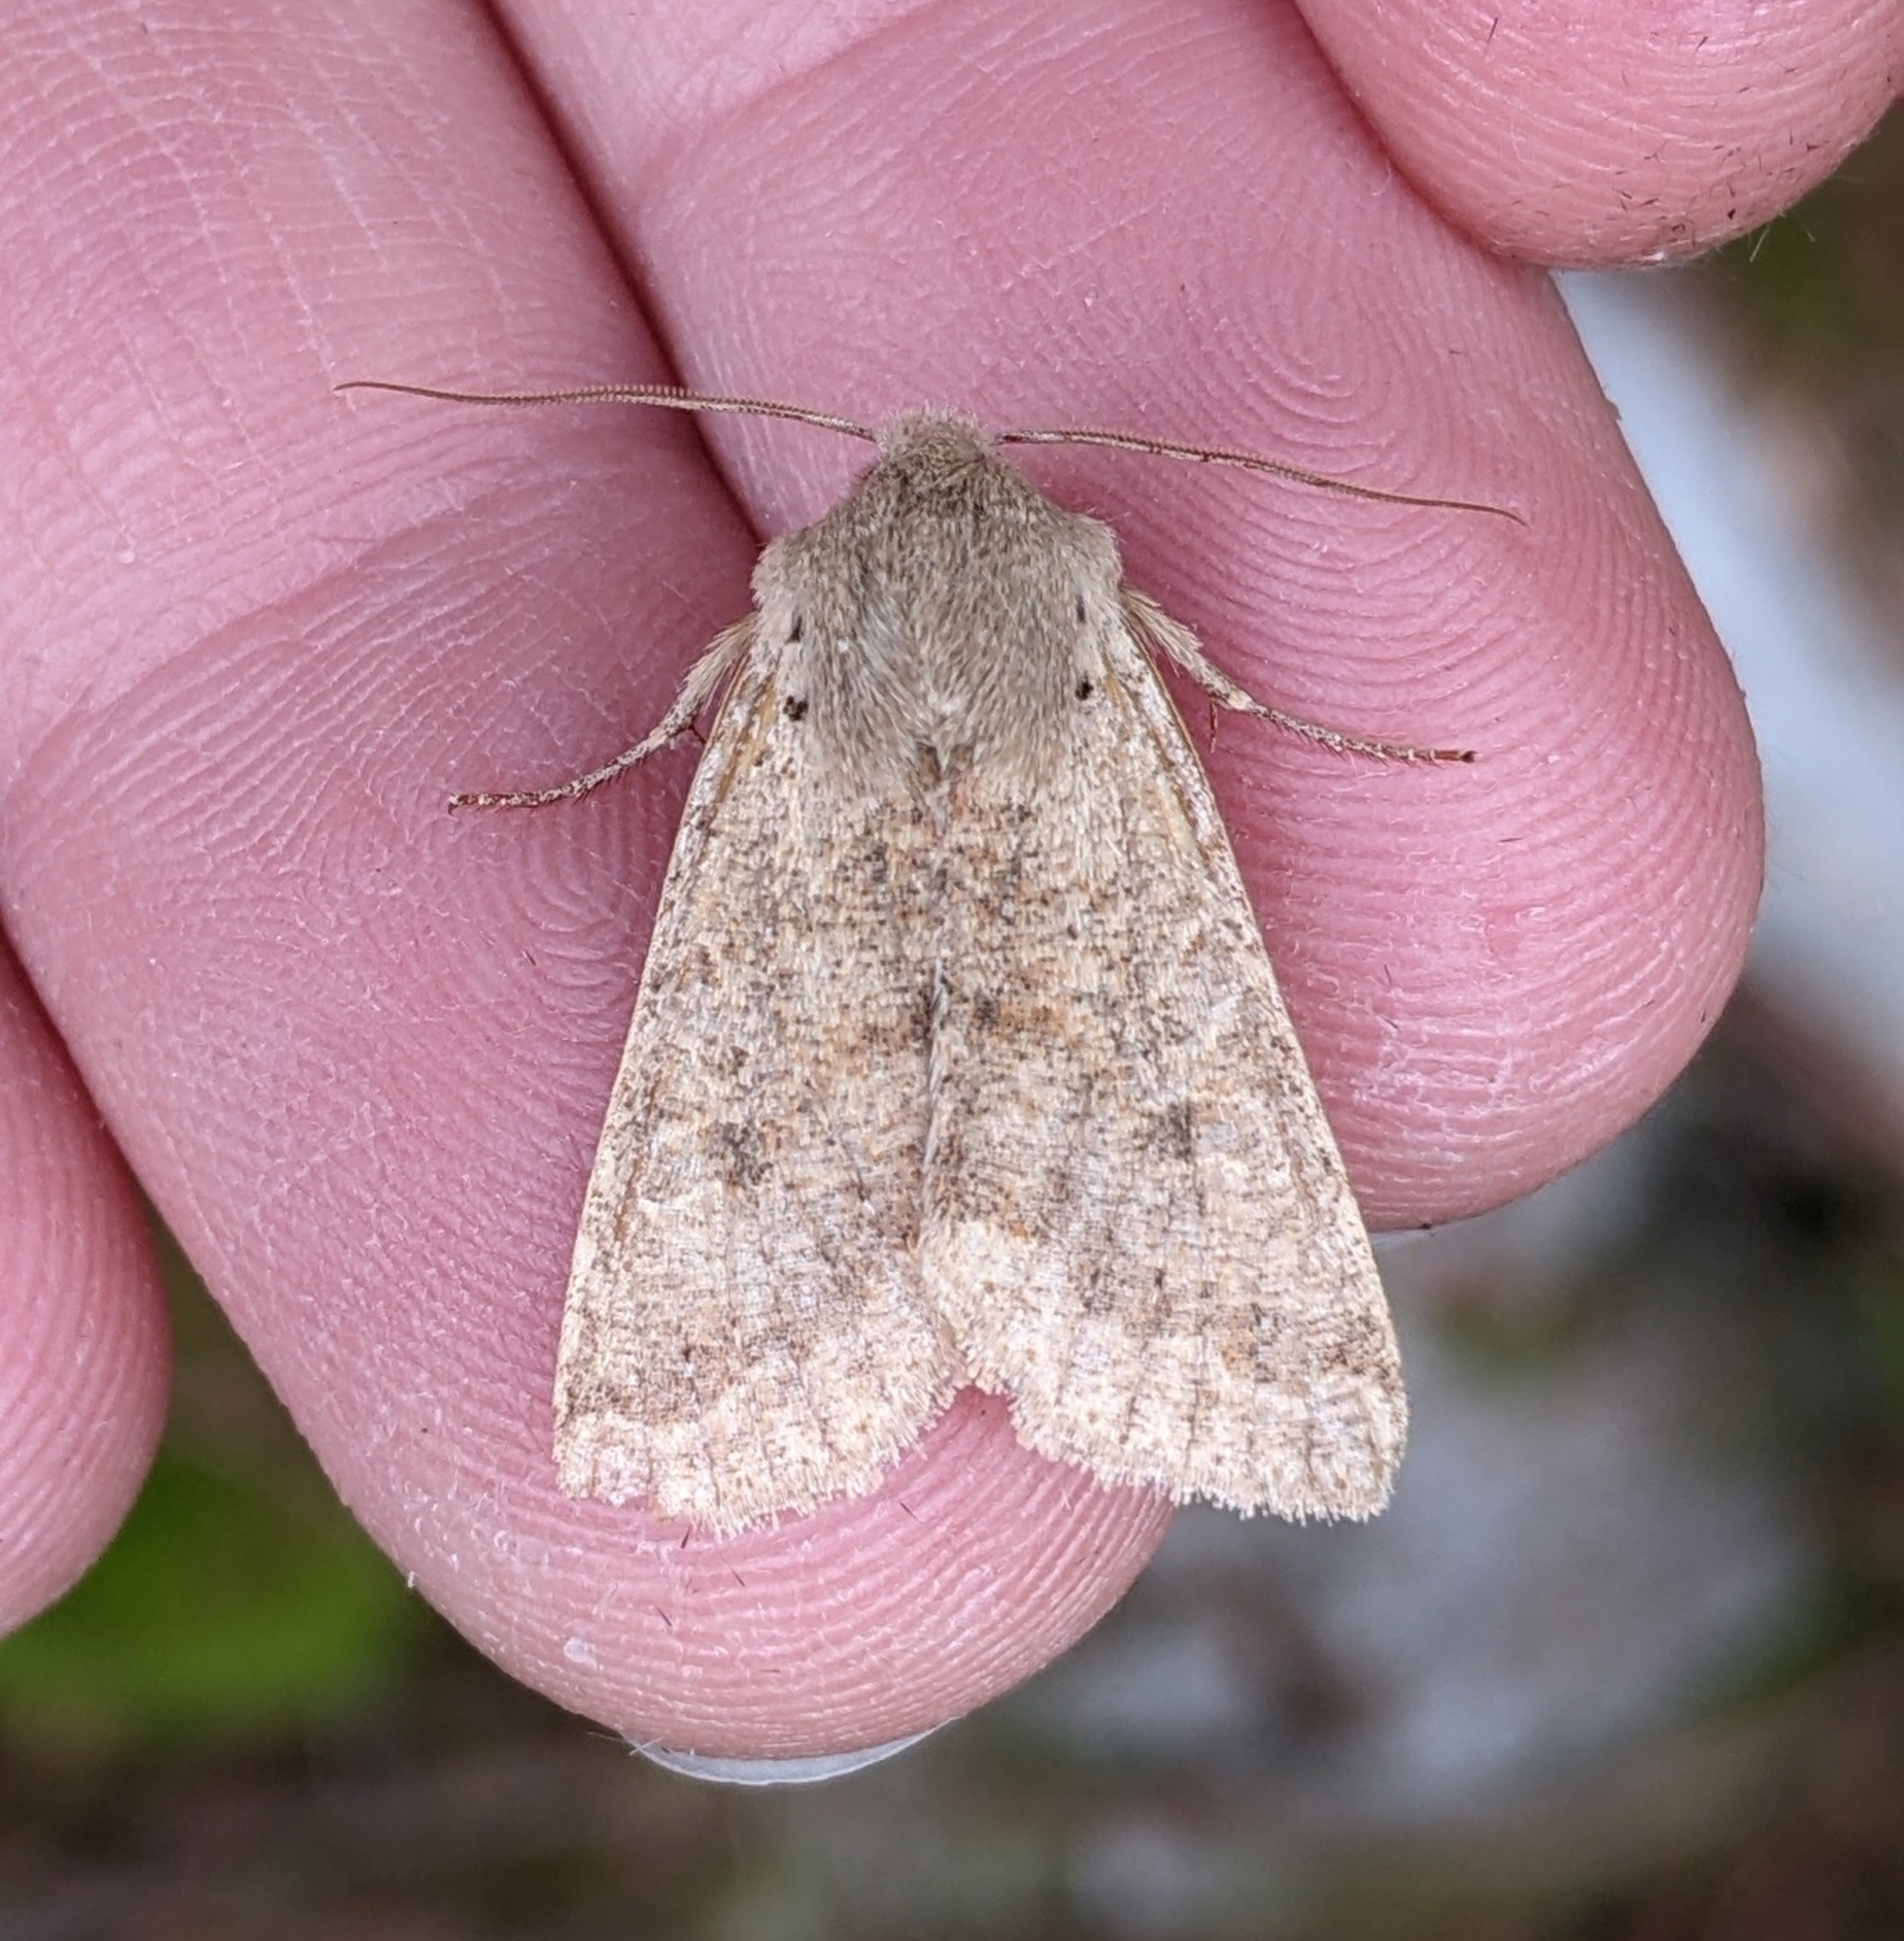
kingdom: Animalia
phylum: Arthropoda
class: Insecta
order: Lepidoptera
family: Noctuidae
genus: Orthosia
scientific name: Orthosia pacifica
